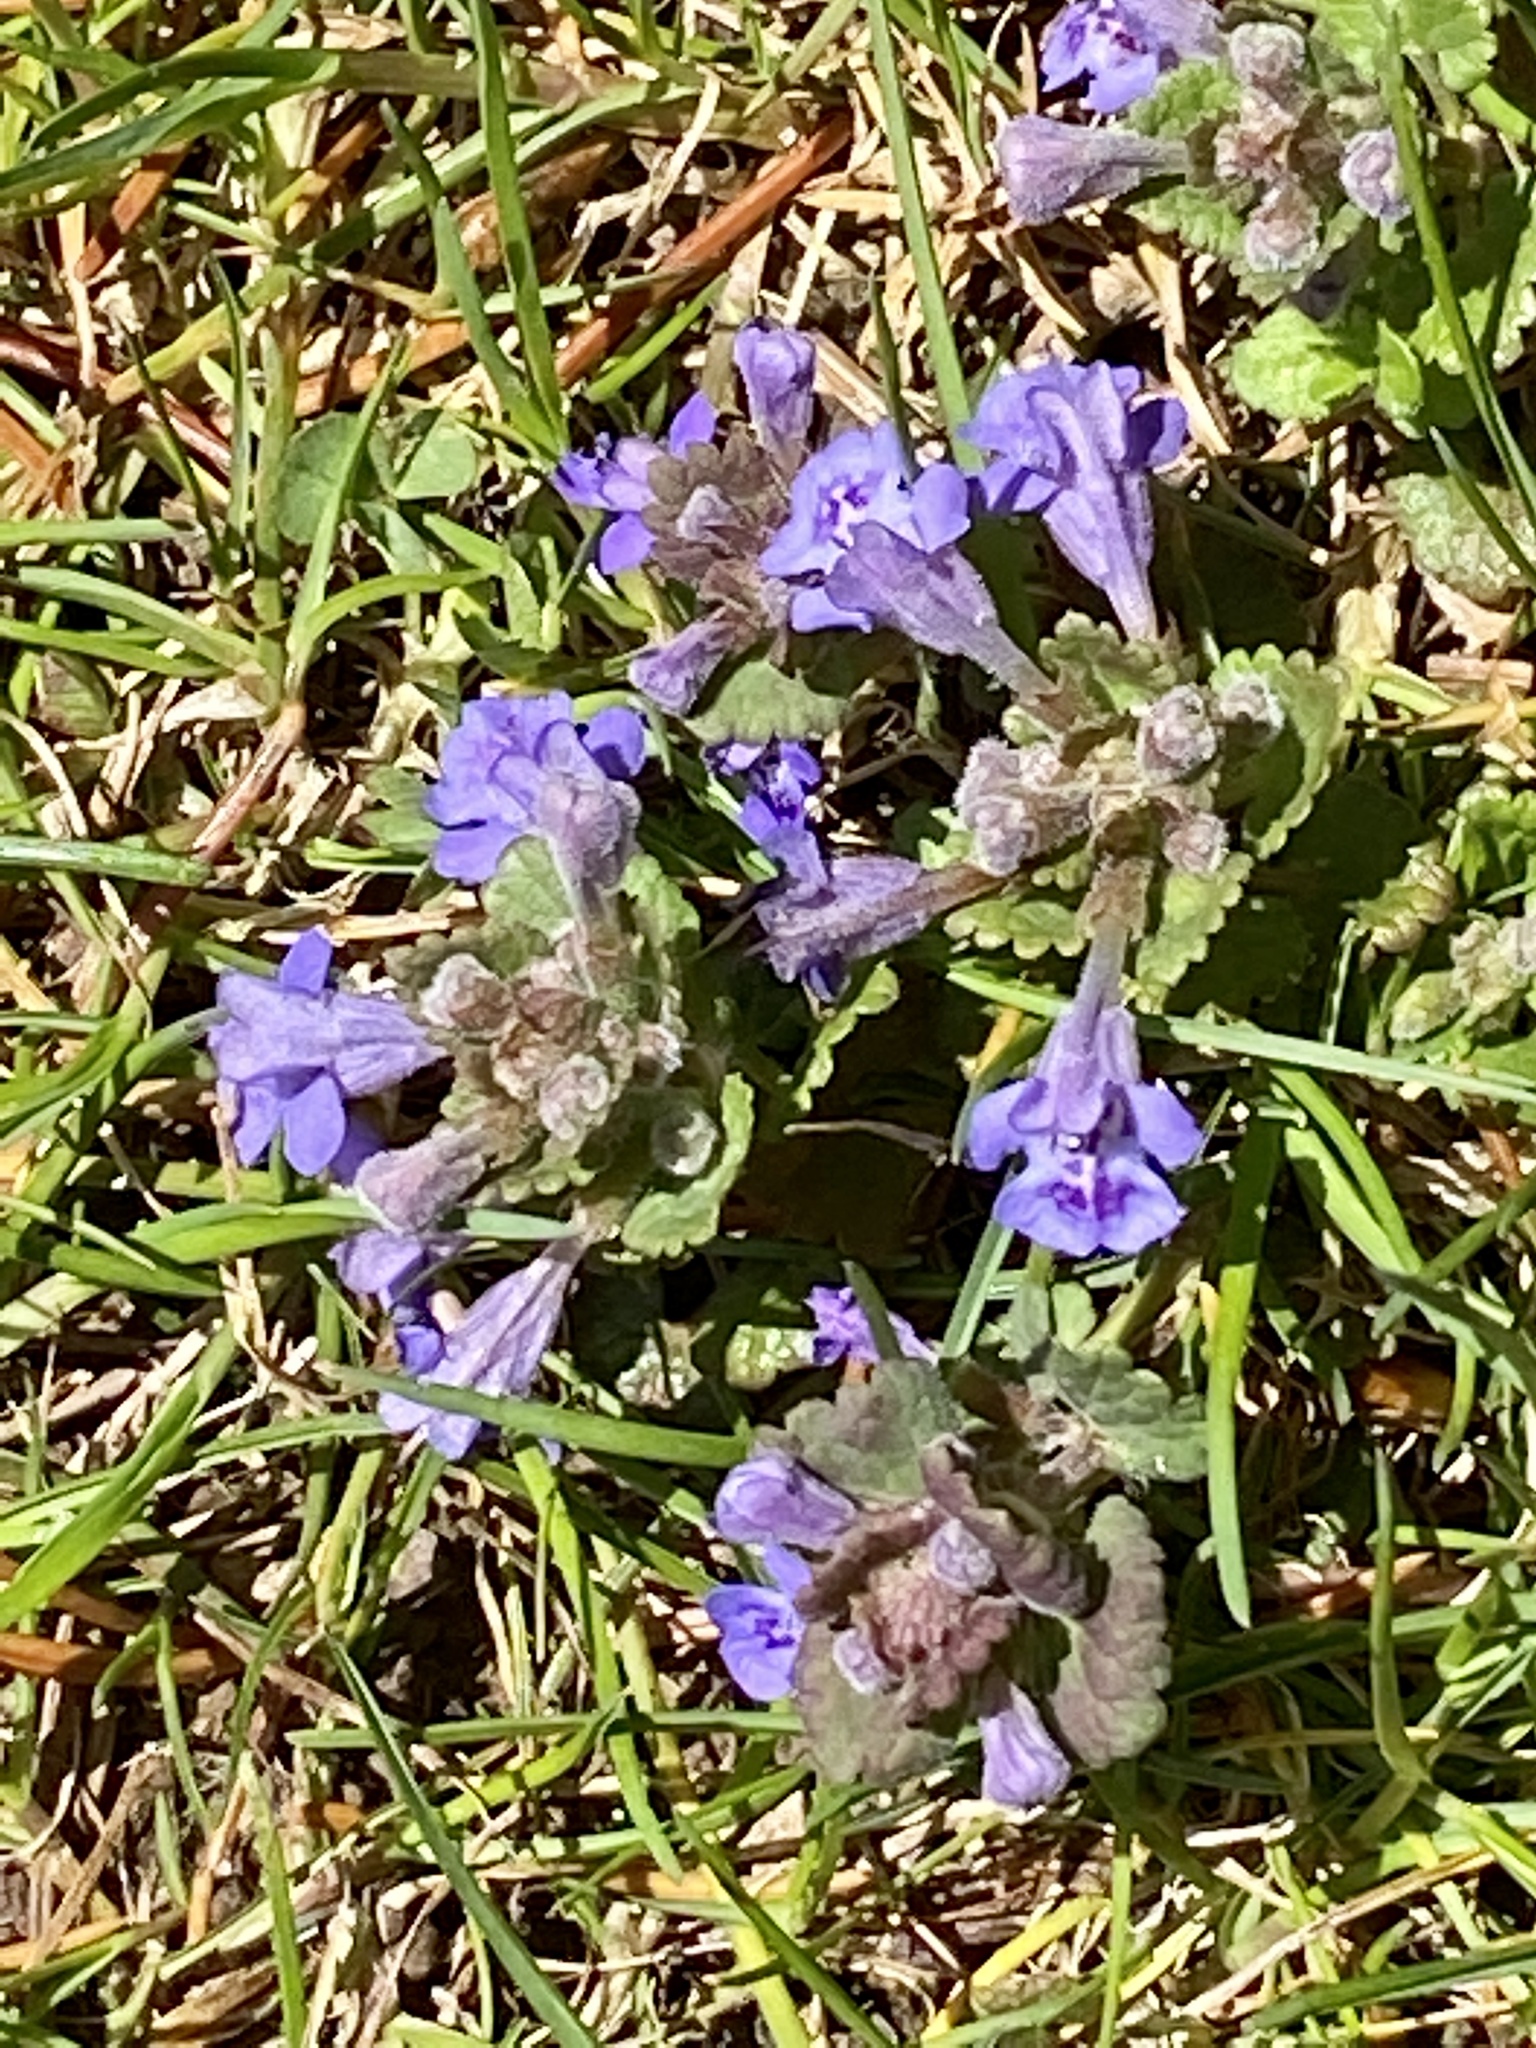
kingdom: Plantae
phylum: Tracheophyta
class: Magnoliopsida
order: Lamiales
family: Lamiaceae
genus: Glechoma
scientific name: Glechoma hederacea
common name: Ground ivy
